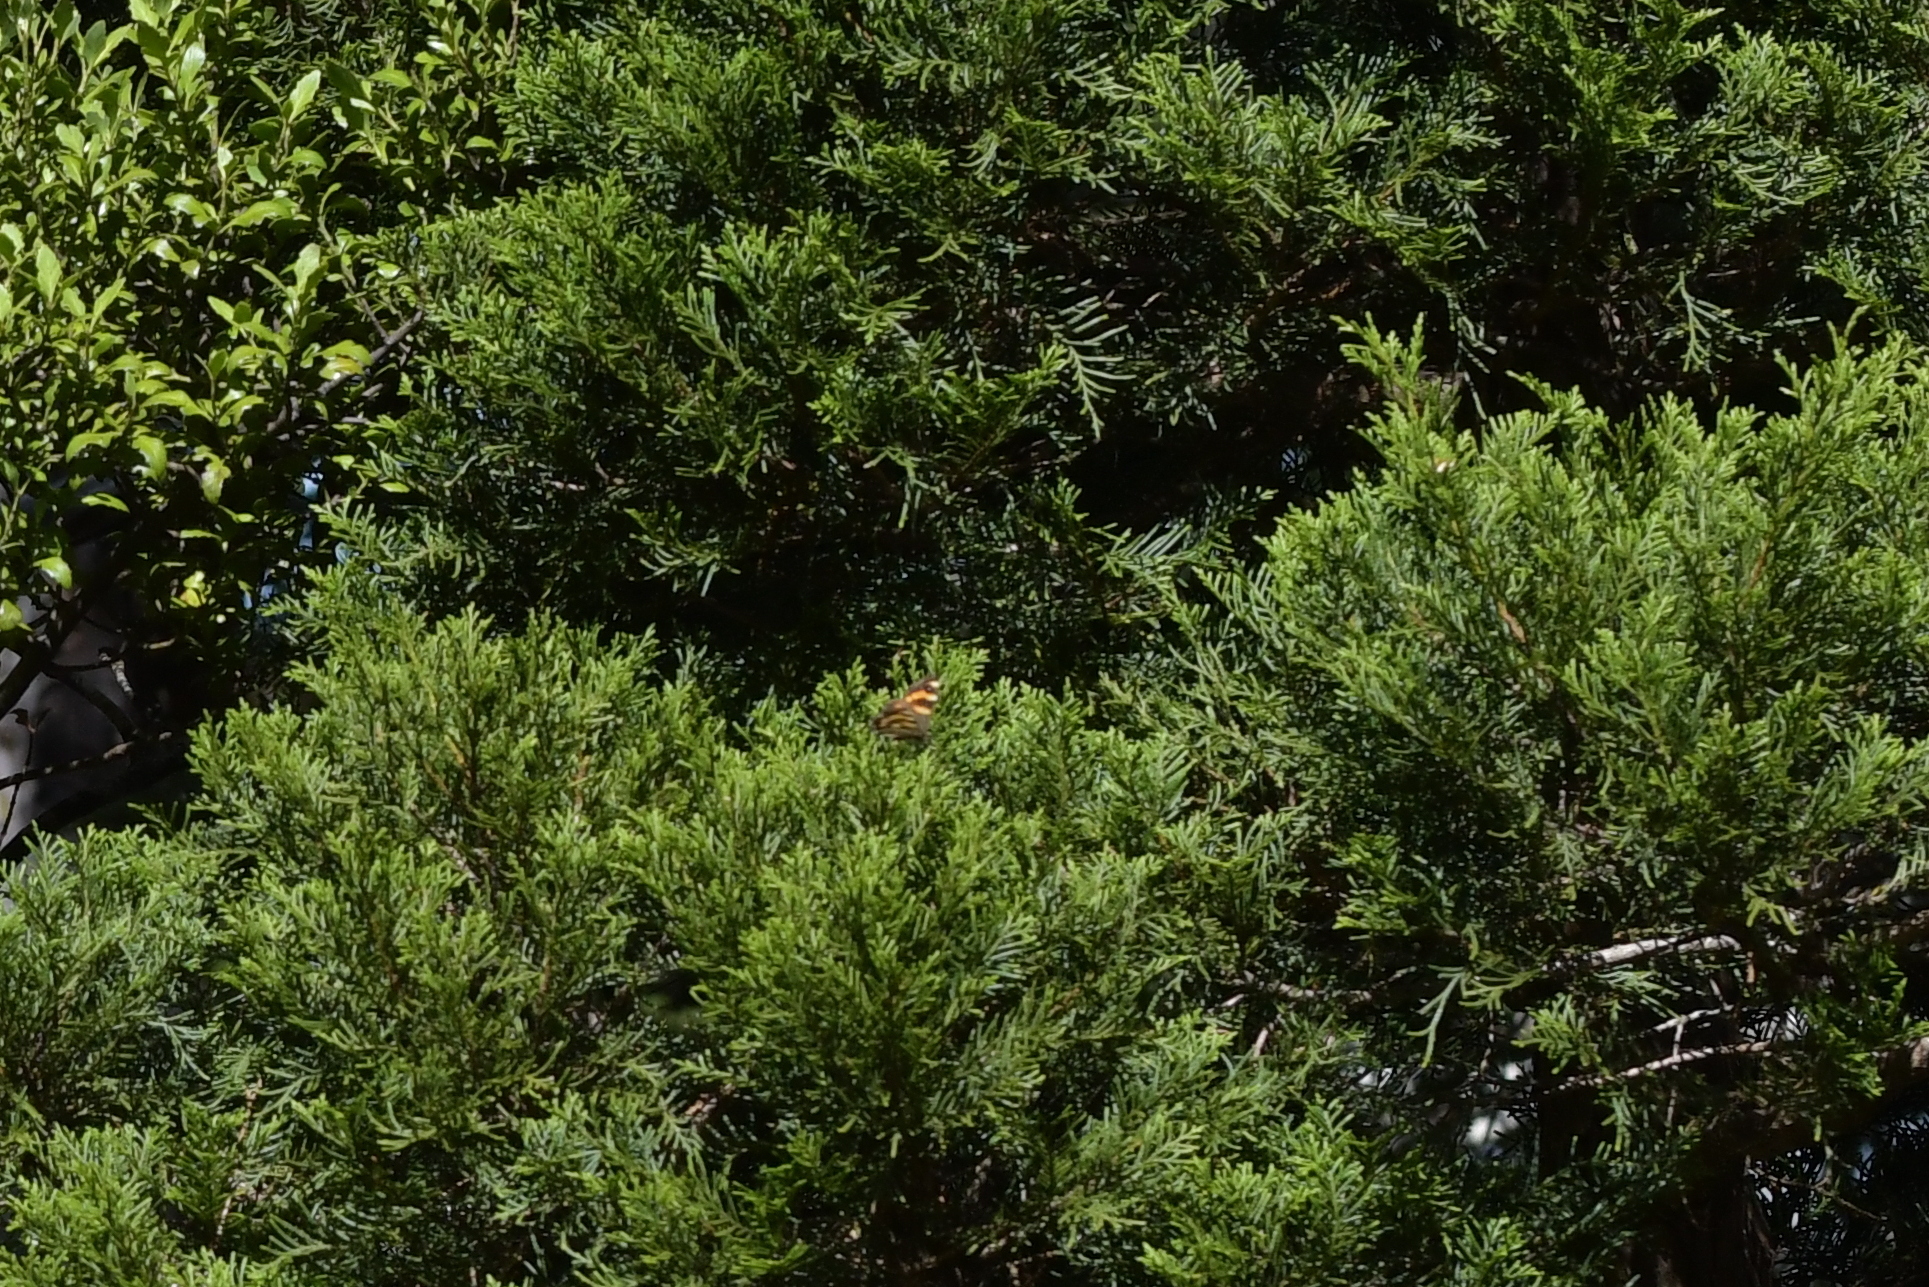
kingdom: Animalia
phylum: Arthropoda
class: Insecta
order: Lepidoptera
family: Nymphalidae
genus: Dodonidia
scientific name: Dodonidia helmsii
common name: Helm's butterfly
